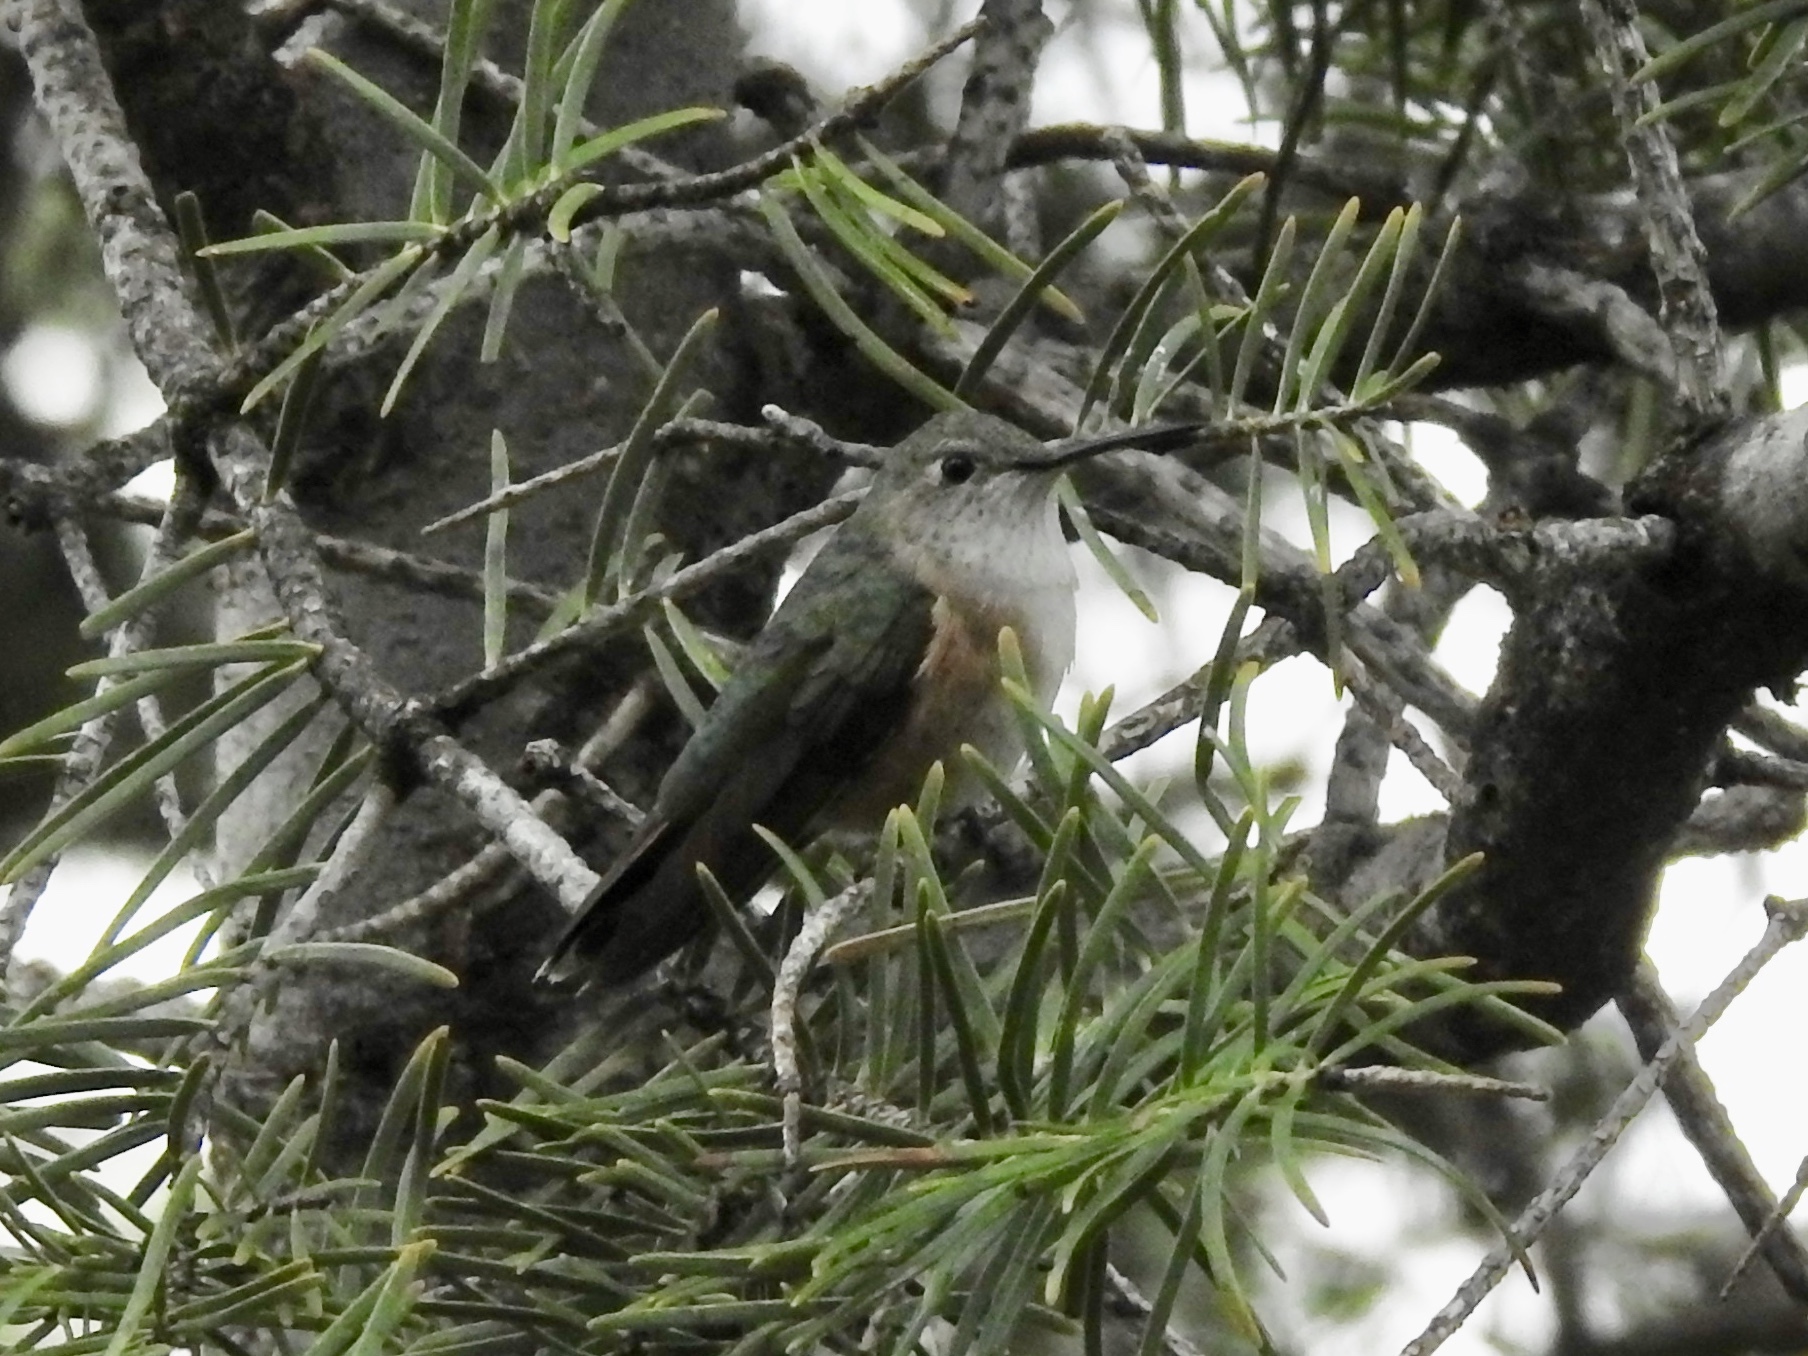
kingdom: Animalia
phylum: Chordata
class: Aves
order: Apodiformes
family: Trochilidae
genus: Selasphorus
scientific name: Selasphorus platycercus
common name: Broad-tailed hummingbird
